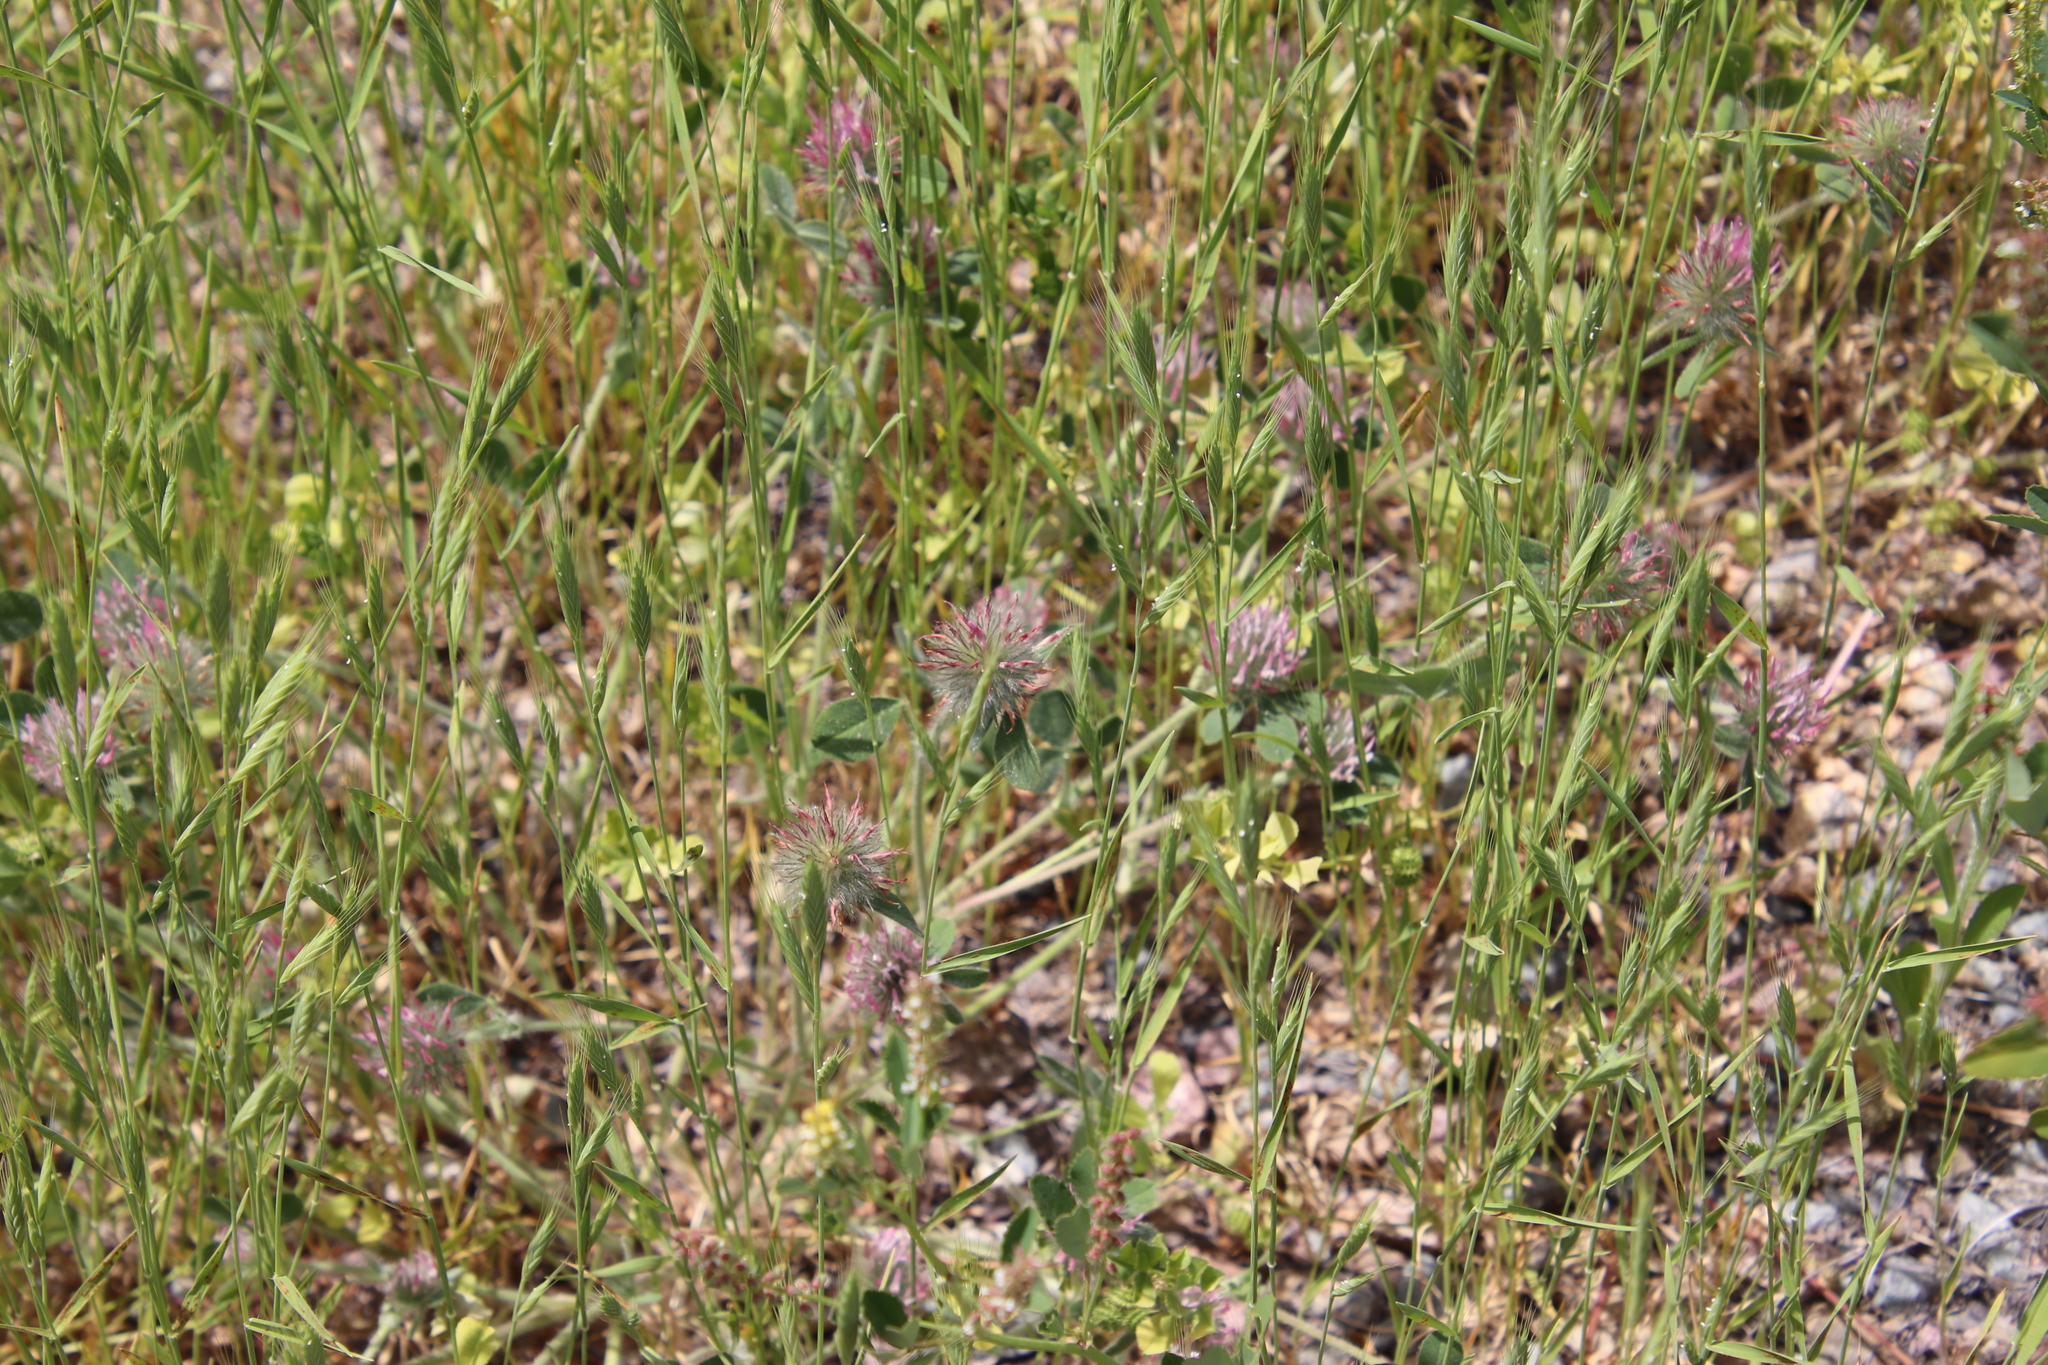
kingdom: Plantae
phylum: Tracheophyta
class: Magnoliopsida
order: Fabales
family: Fabaceae
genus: Trifolium
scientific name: Trifolium hirtum
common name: Rose clover
